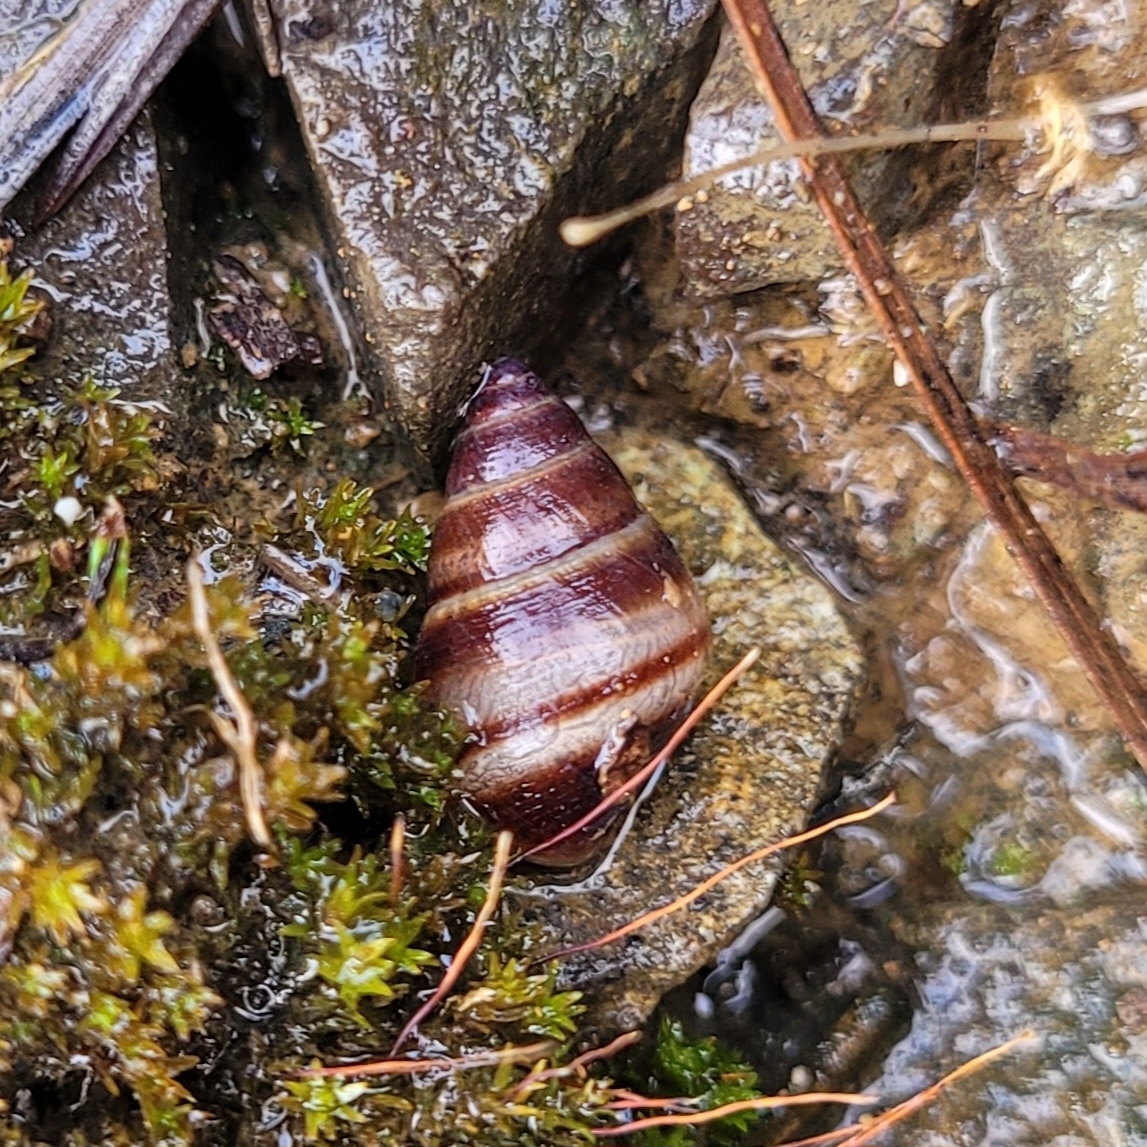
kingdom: Animalia
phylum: Mollusca
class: Gastropoda
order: Stylommatophora
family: Bulimulidae
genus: Bulimulus
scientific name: Bulimulus guadalupensis
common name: West indian bulimulus
